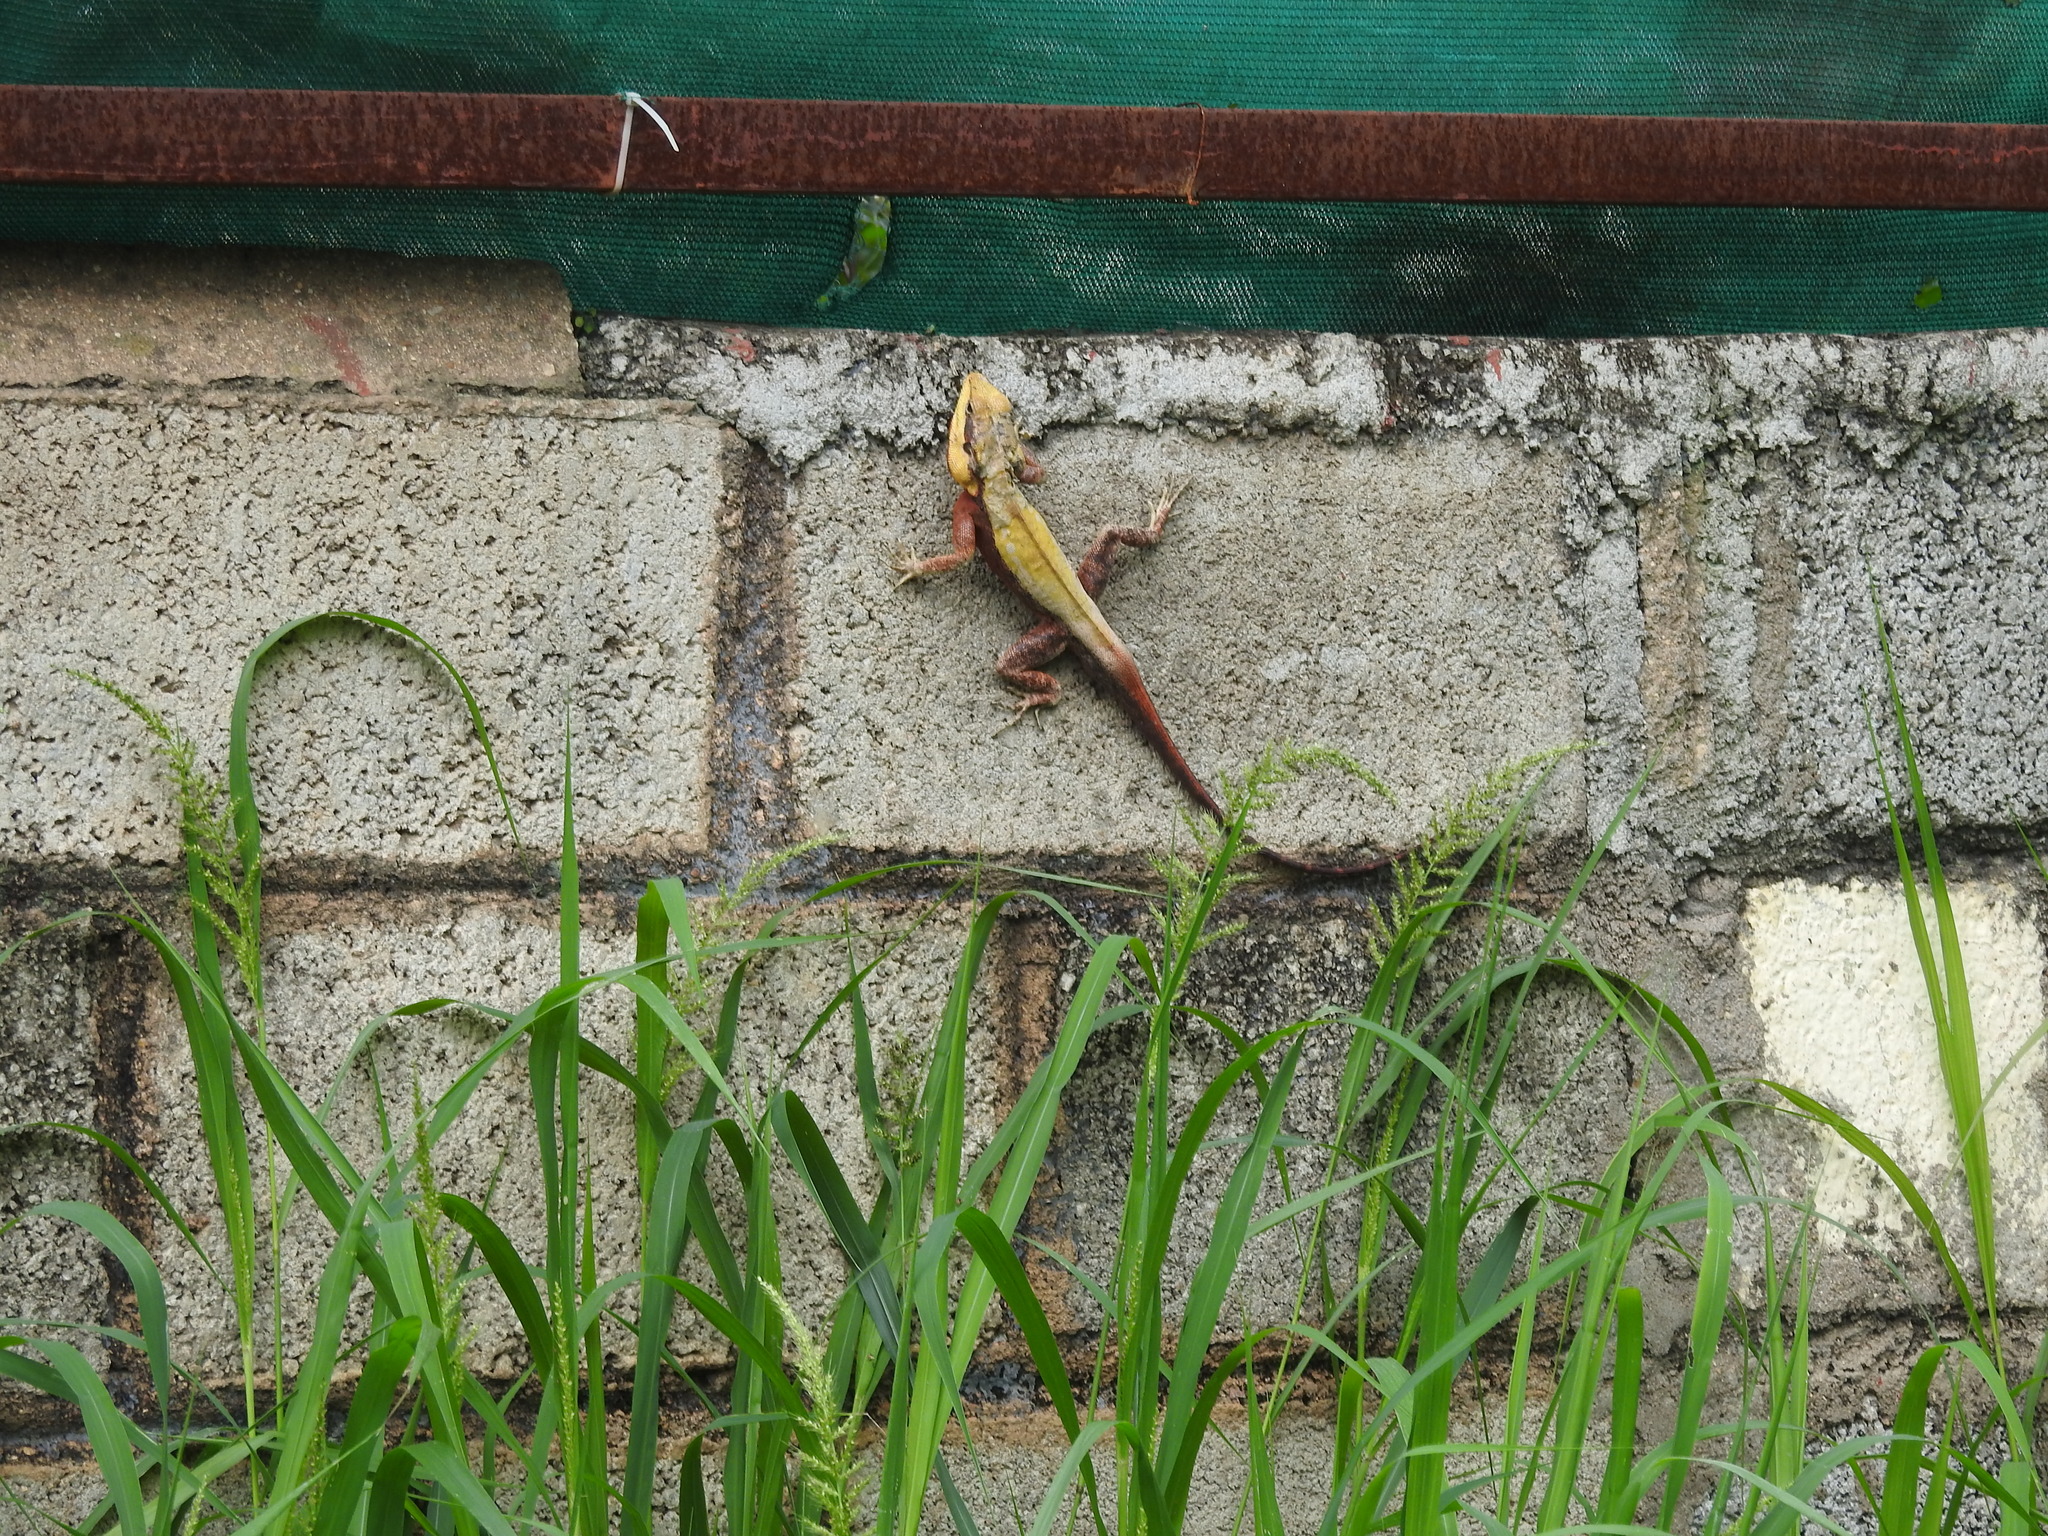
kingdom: Animalia
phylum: Chordata
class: Squamata
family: Agamidae
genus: Psammophilus
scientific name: Psammophilus dorsalis
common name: South indian rock agama
